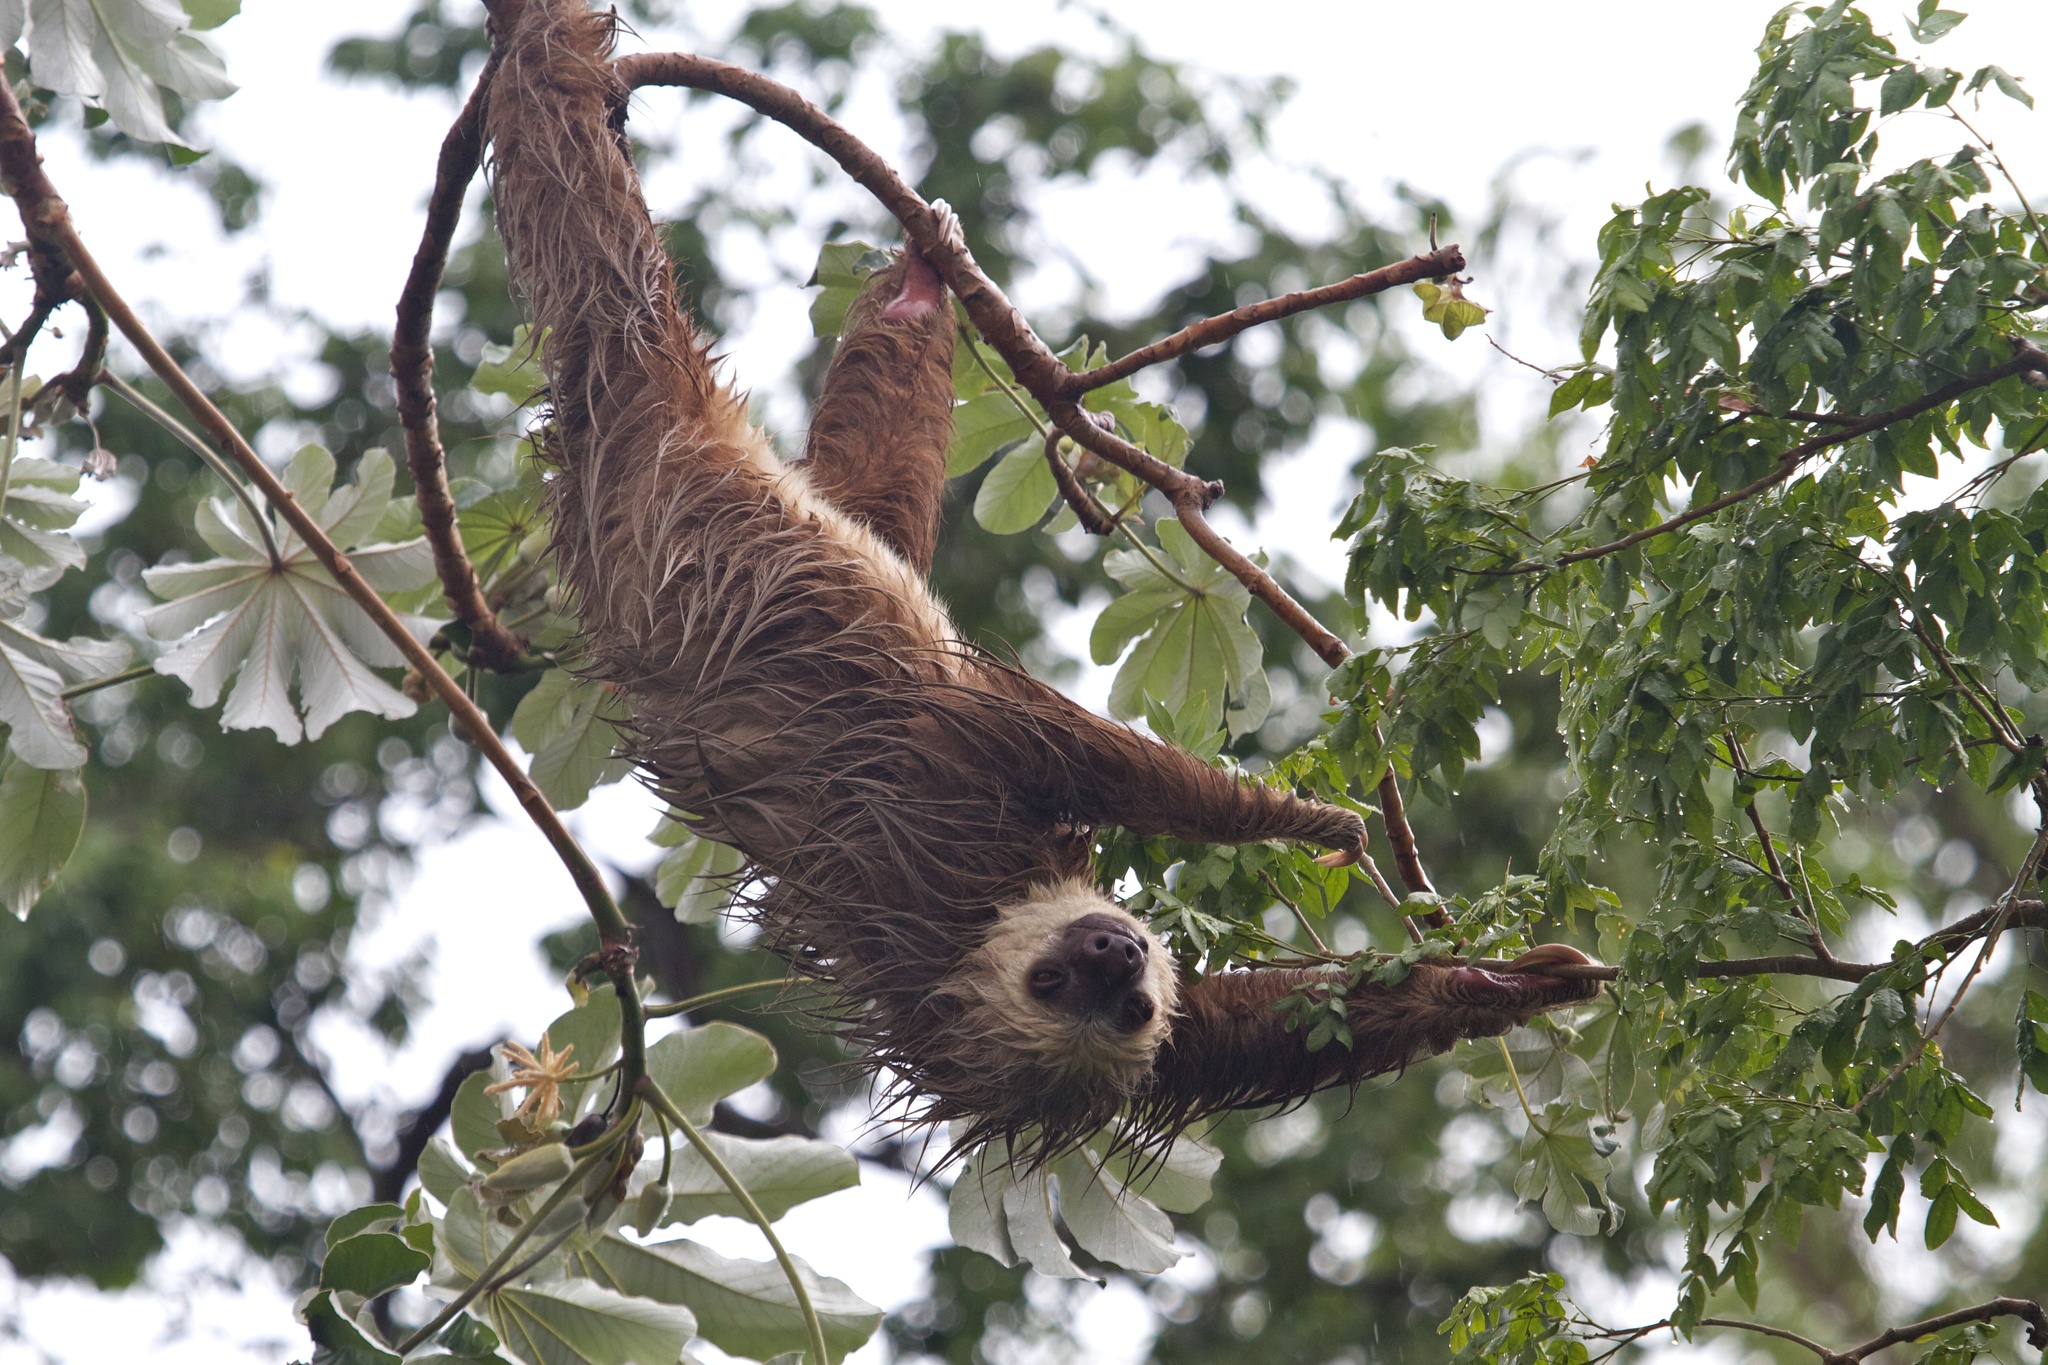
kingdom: Animalia
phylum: Chordata
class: Mammalia
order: Pilosa
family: Megalonychidae
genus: Choloepus
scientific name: Choloepus hoffmanni
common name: Hoffmann's two-toed sloth
